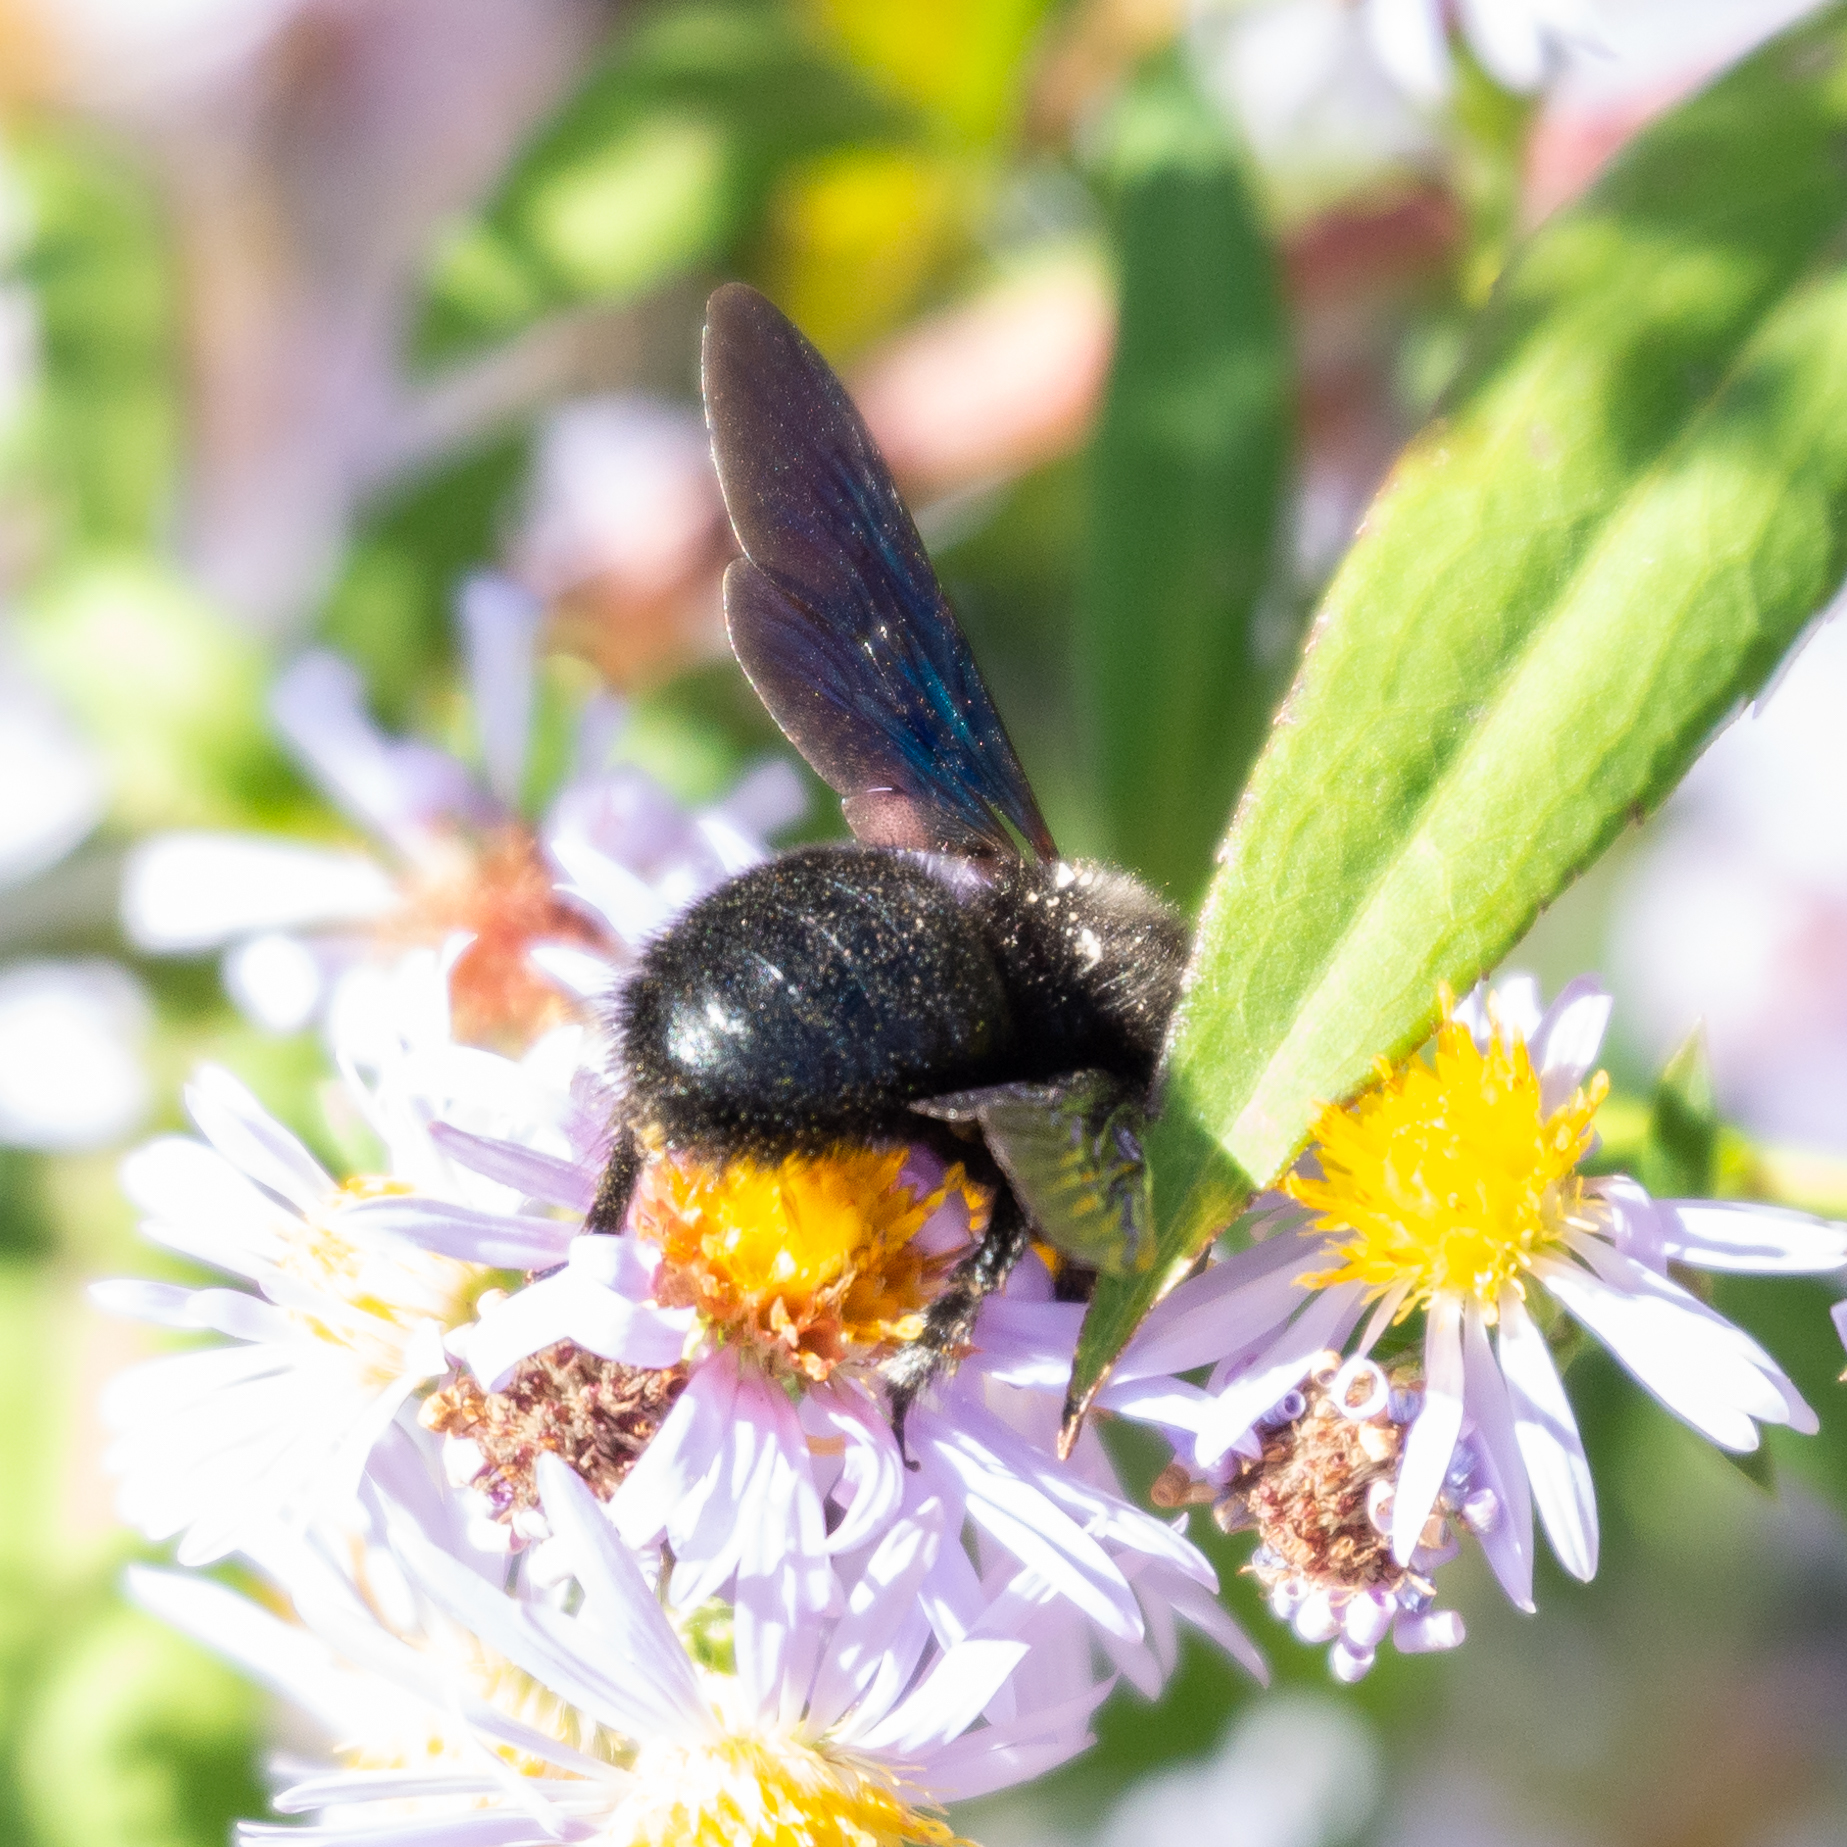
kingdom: Animalia
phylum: Arthropoda
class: Insecta
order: Hymenoptera
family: Apidae
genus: Xylocopa
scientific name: Xylocopa violacea
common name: Violet carpenter bee
